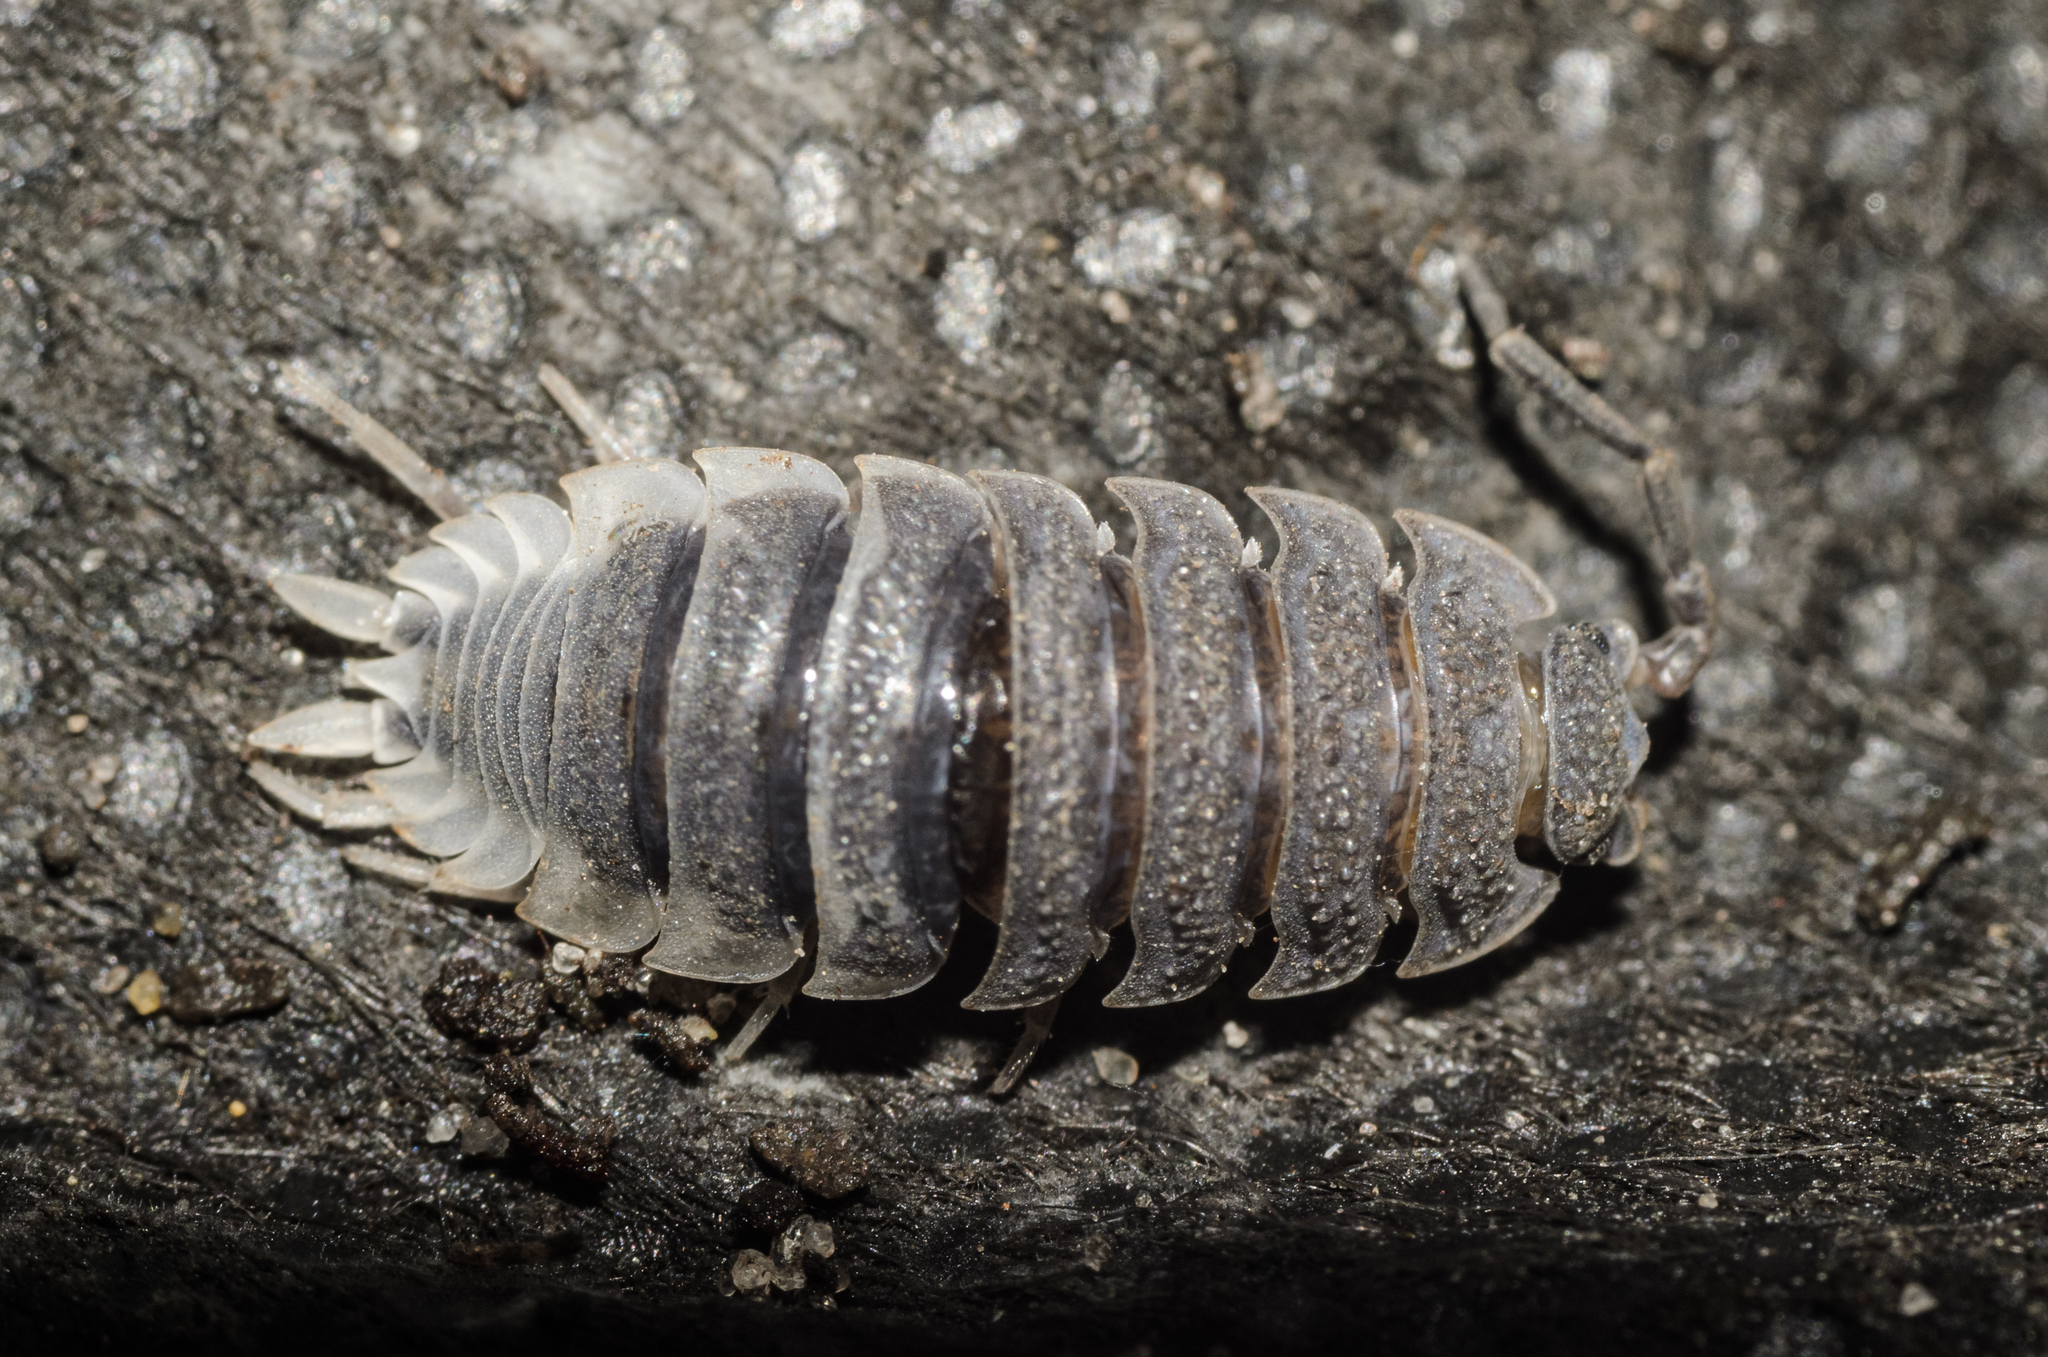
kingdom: Animalia
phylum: Arthropoda
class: Malacostraca
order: Isopoda
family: Porcellionidae
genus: Porcellio
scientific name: Porcellio scaber
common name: Common rough woodlouse
